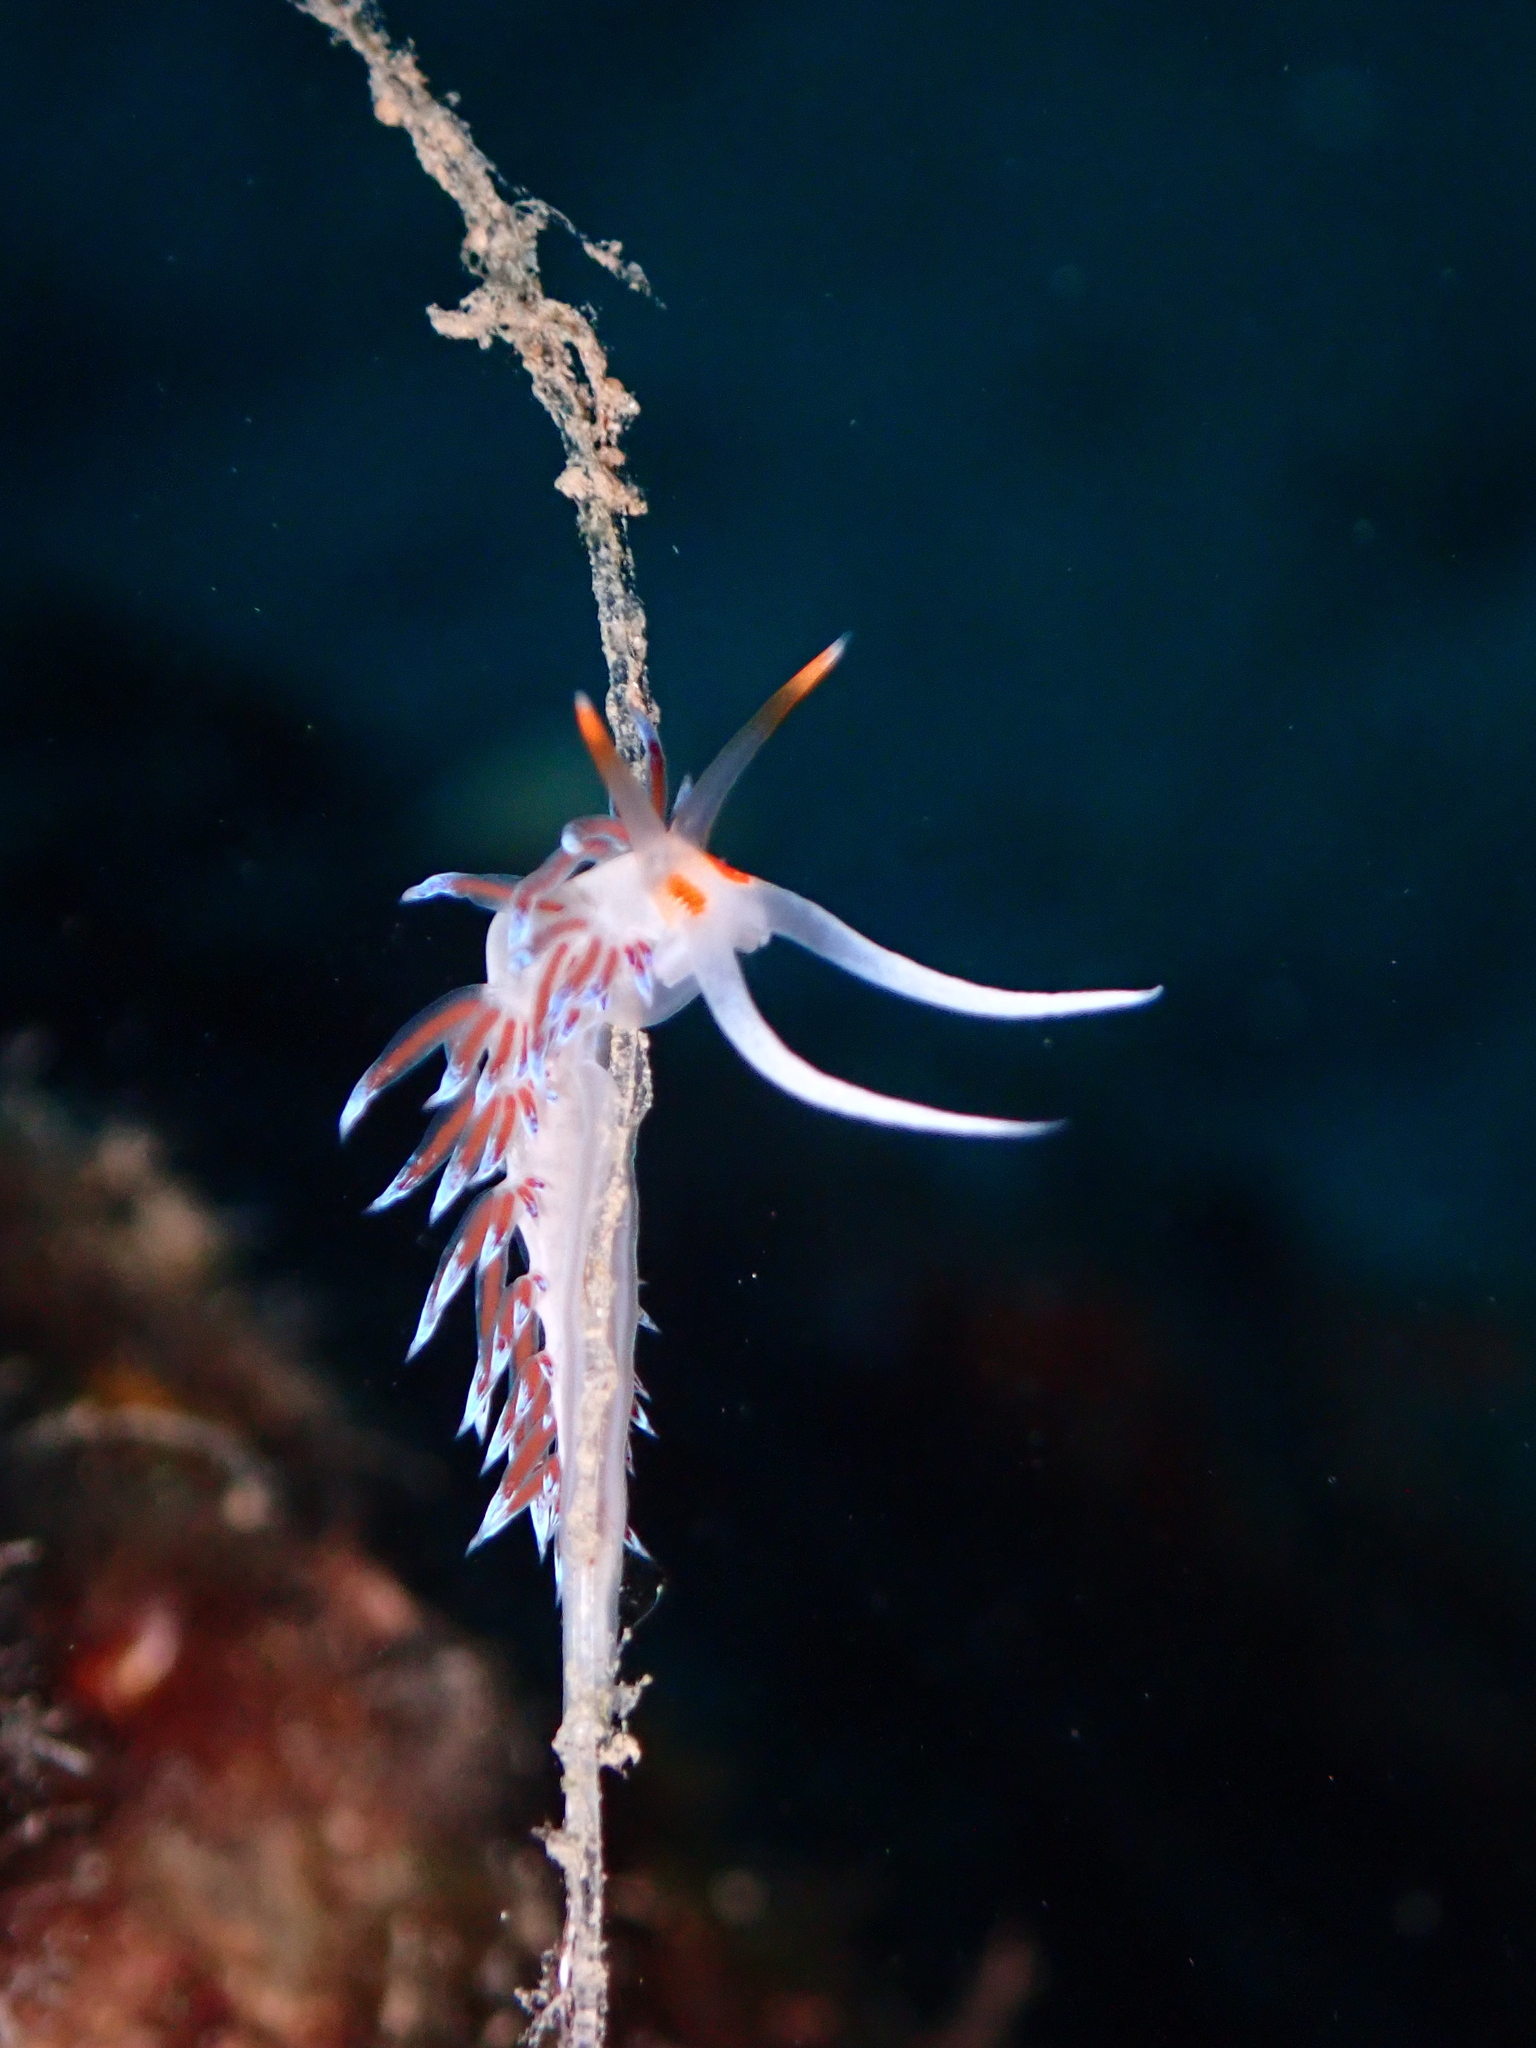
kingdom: Animalia
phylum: Mollusca
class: Gastropoda
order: Nudibranchia
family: Facelinidae
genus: Cratena
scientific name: Cratena peregrina
